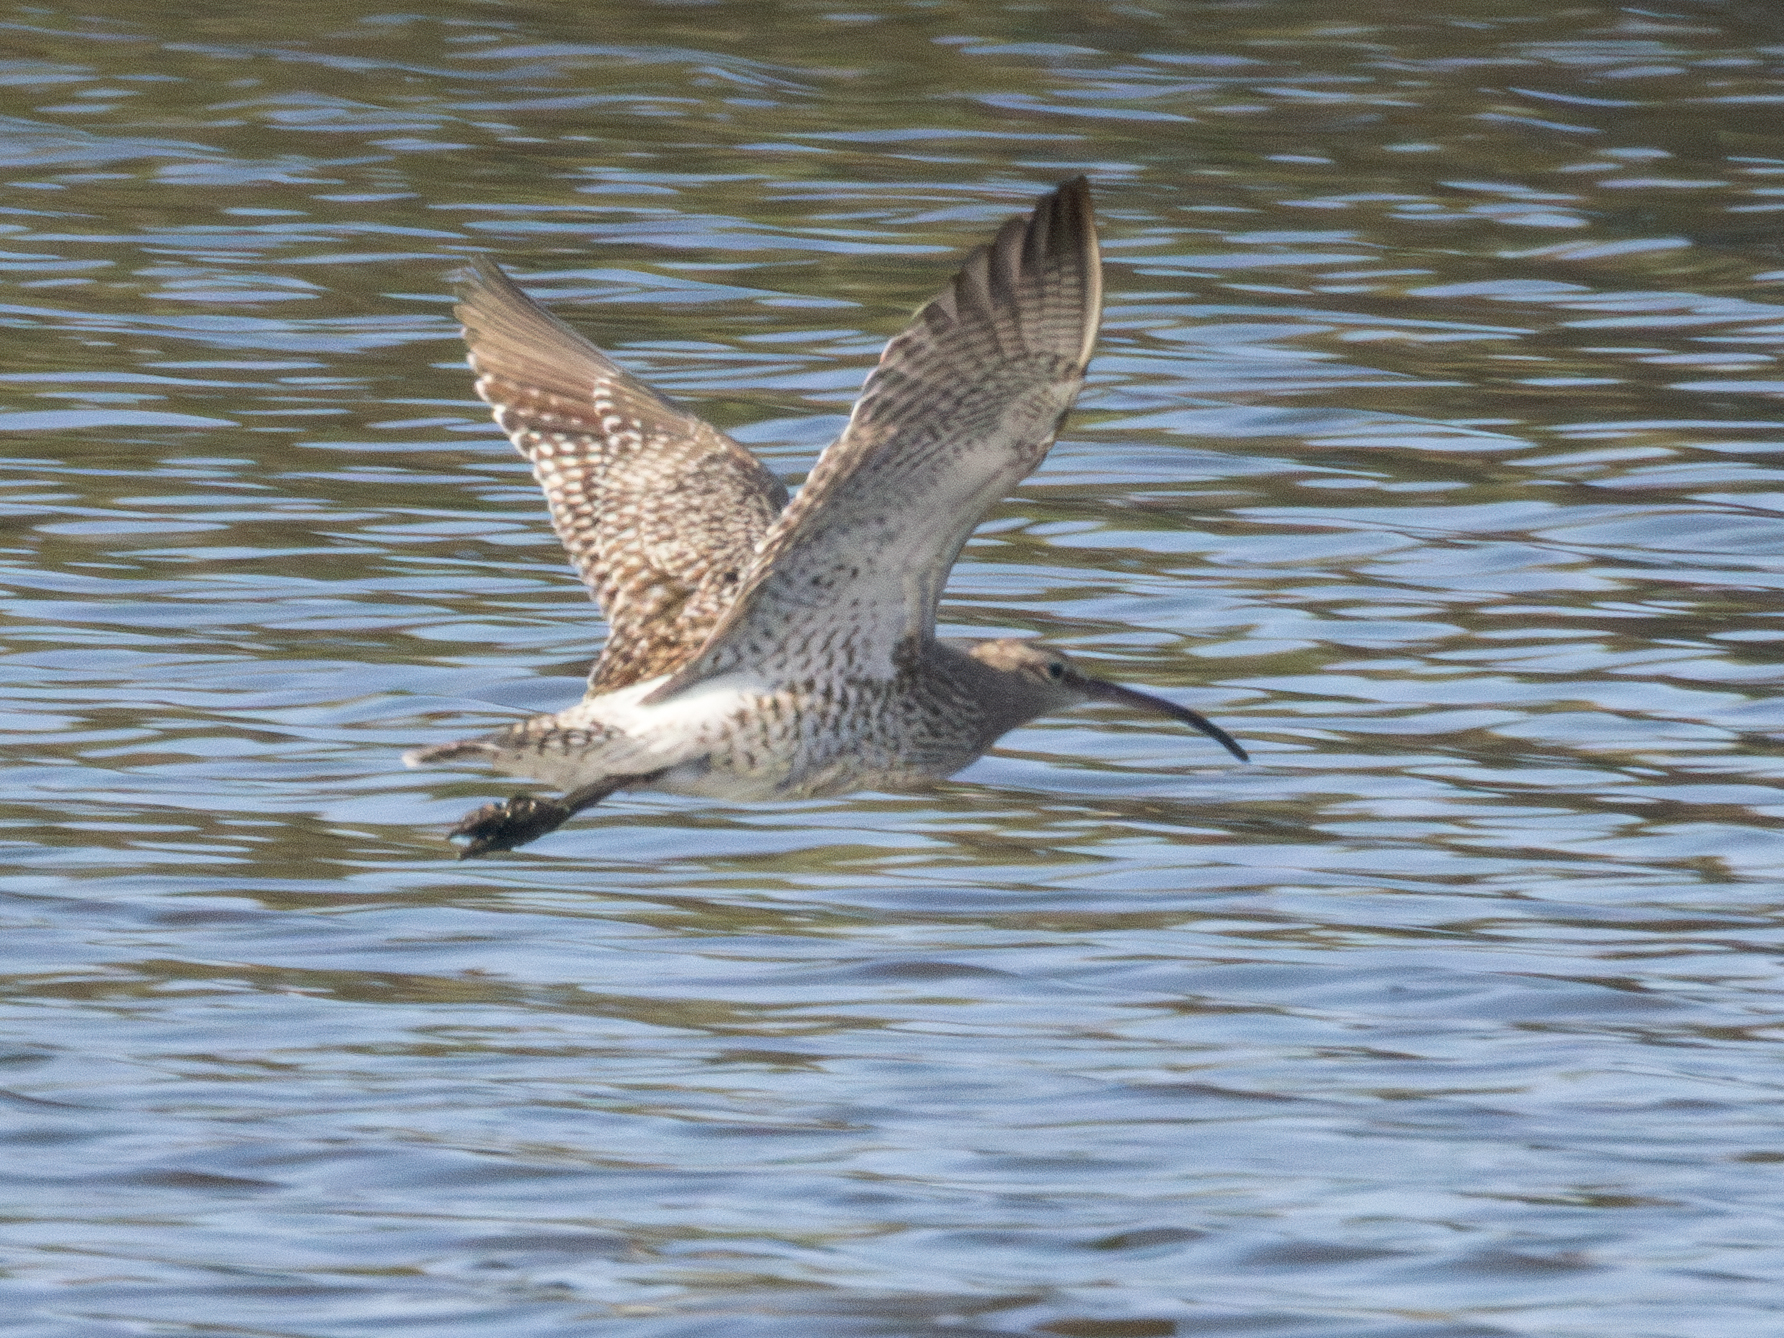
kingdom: Animalia
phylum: Chordata
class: Aves
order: Charadriiformes
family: Scolopacidae
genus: Numenius
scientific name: Numenius phaeopus
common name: Whimbrel
